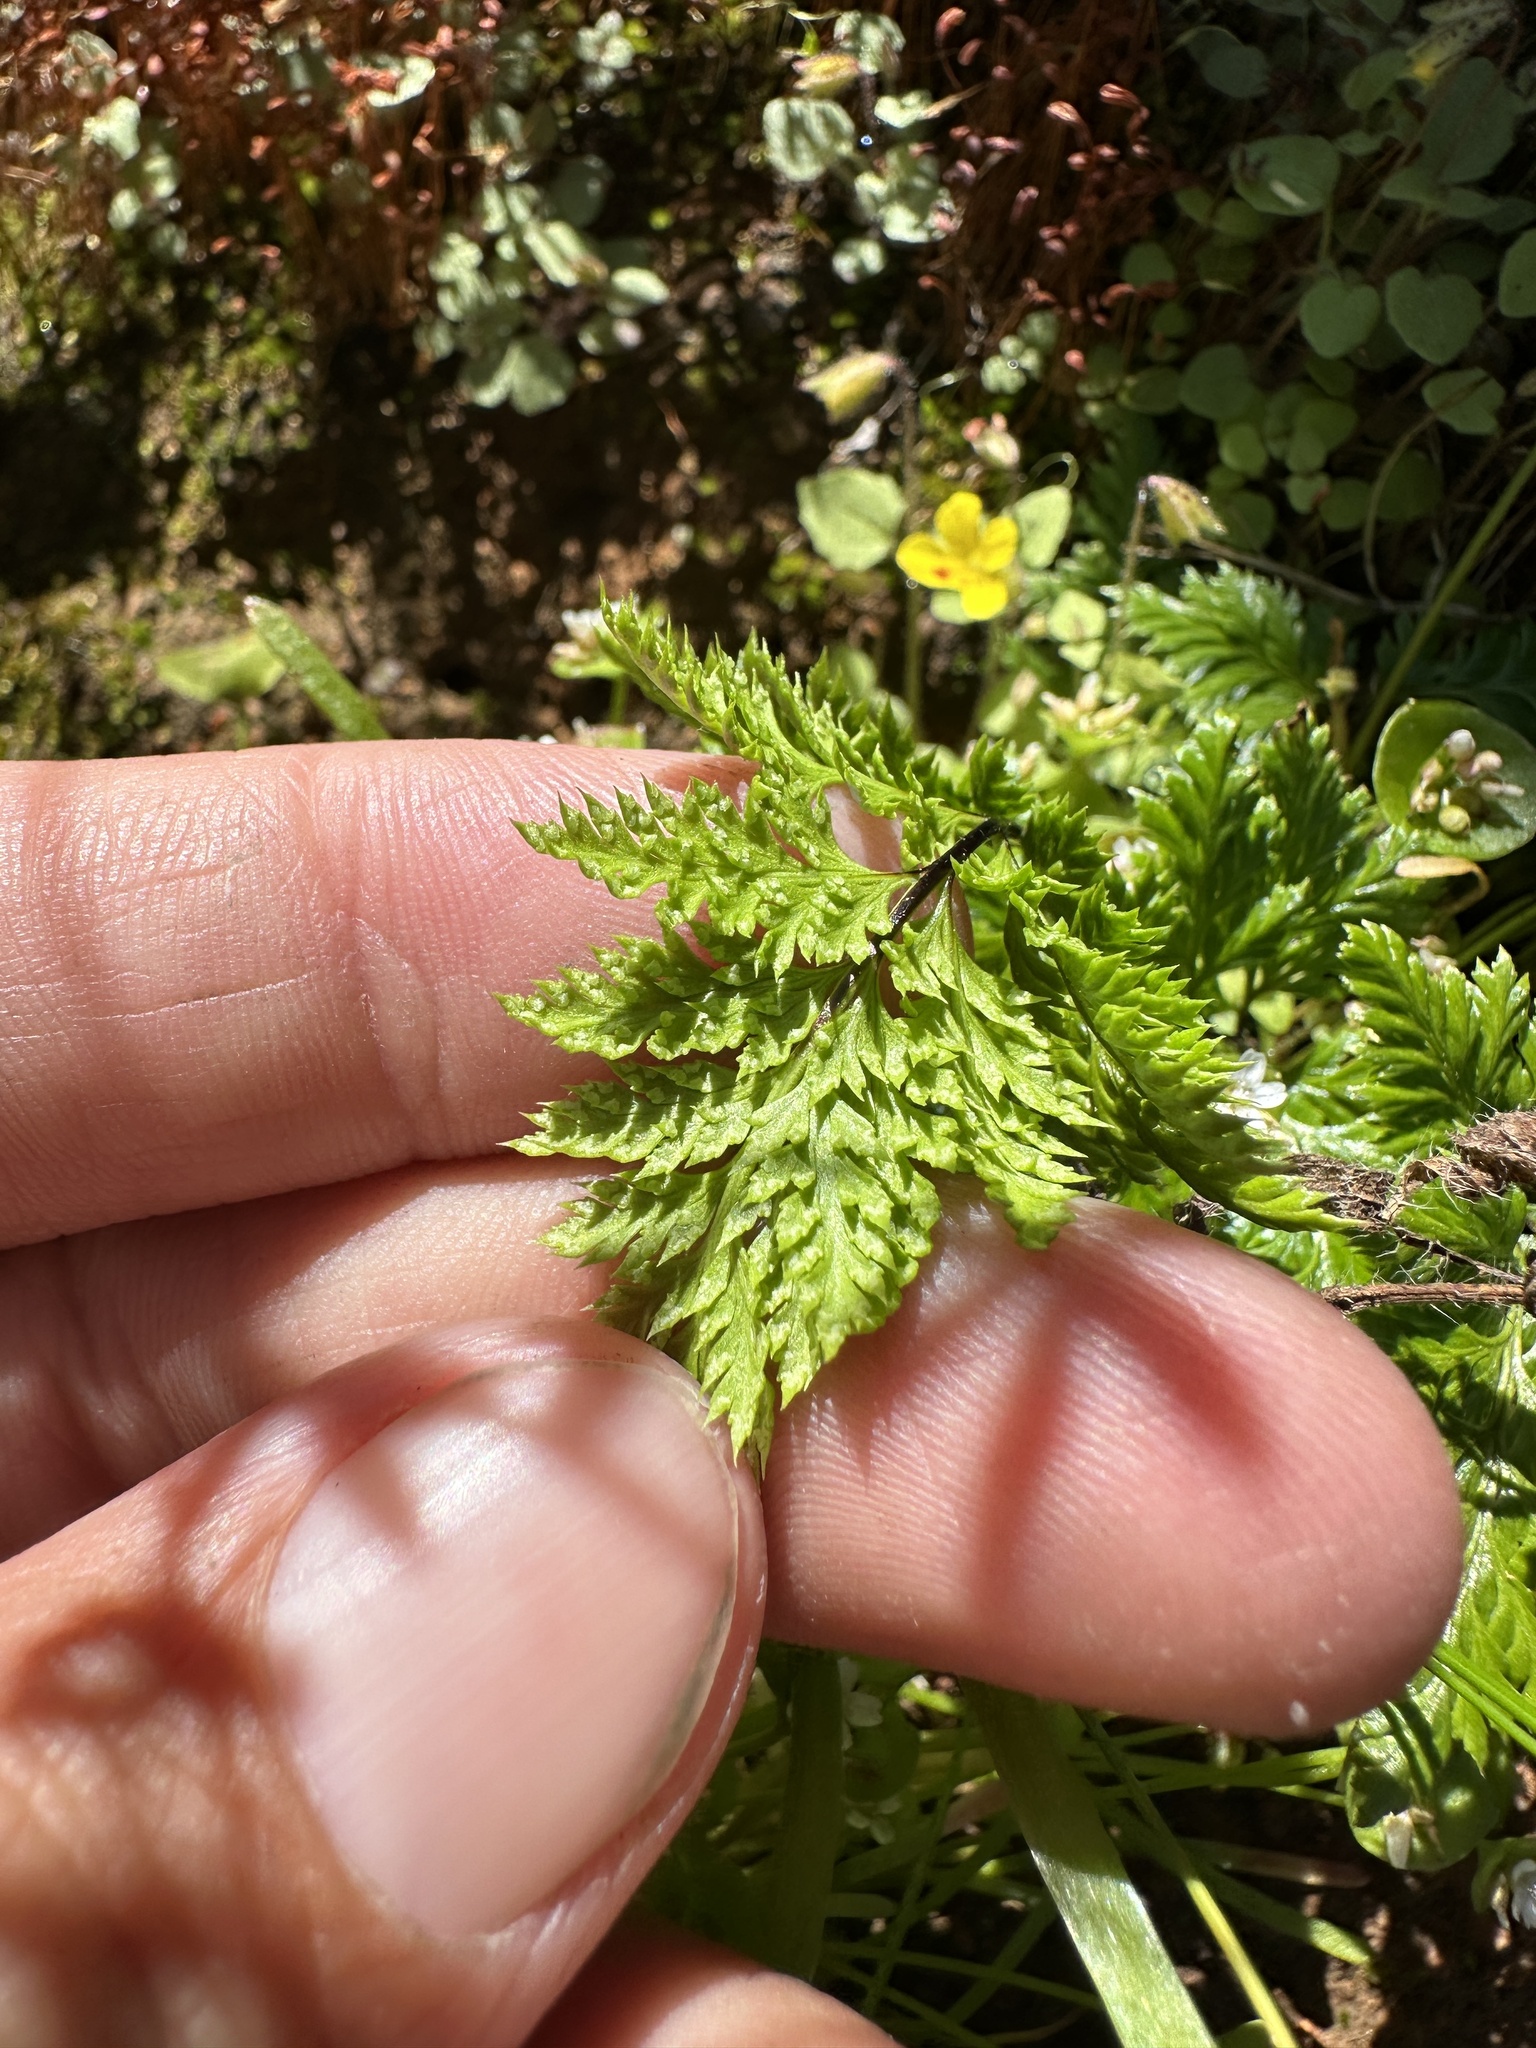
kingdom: Plantae
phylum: Tracheophyta
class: Polypodiopsida
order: Polypodiales
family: Pteridaceae
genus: Aspidotis
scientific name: Aspidotis californica
